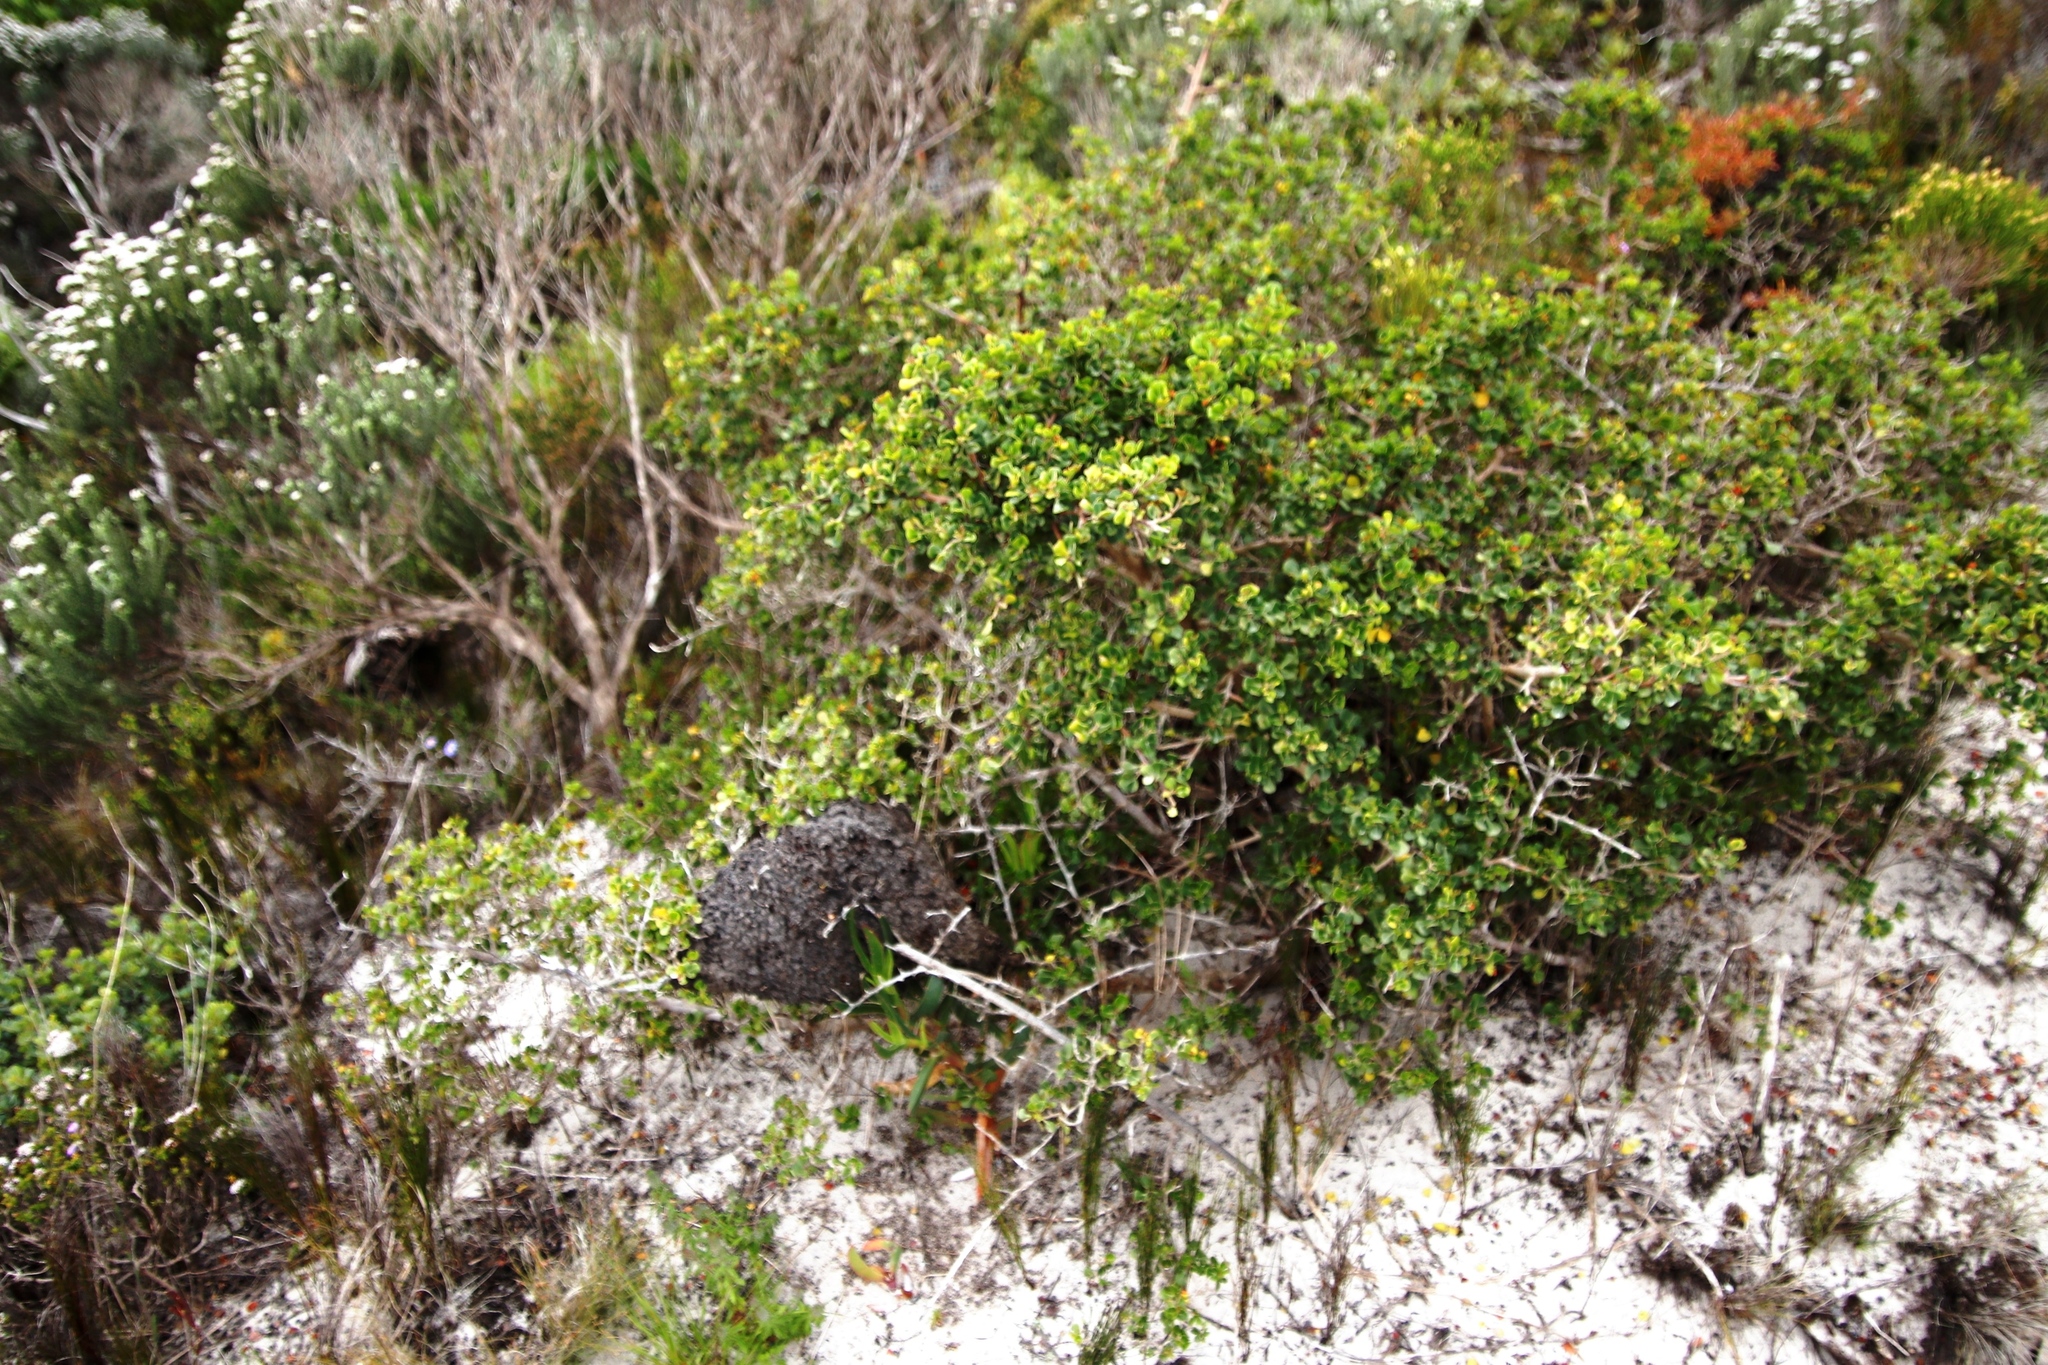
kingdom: Animalia
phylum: Arthropoda
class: Insecta
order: Hymenoptera
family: Formicidae
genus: Crematogaster
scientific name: Crematogaster peringueyi
